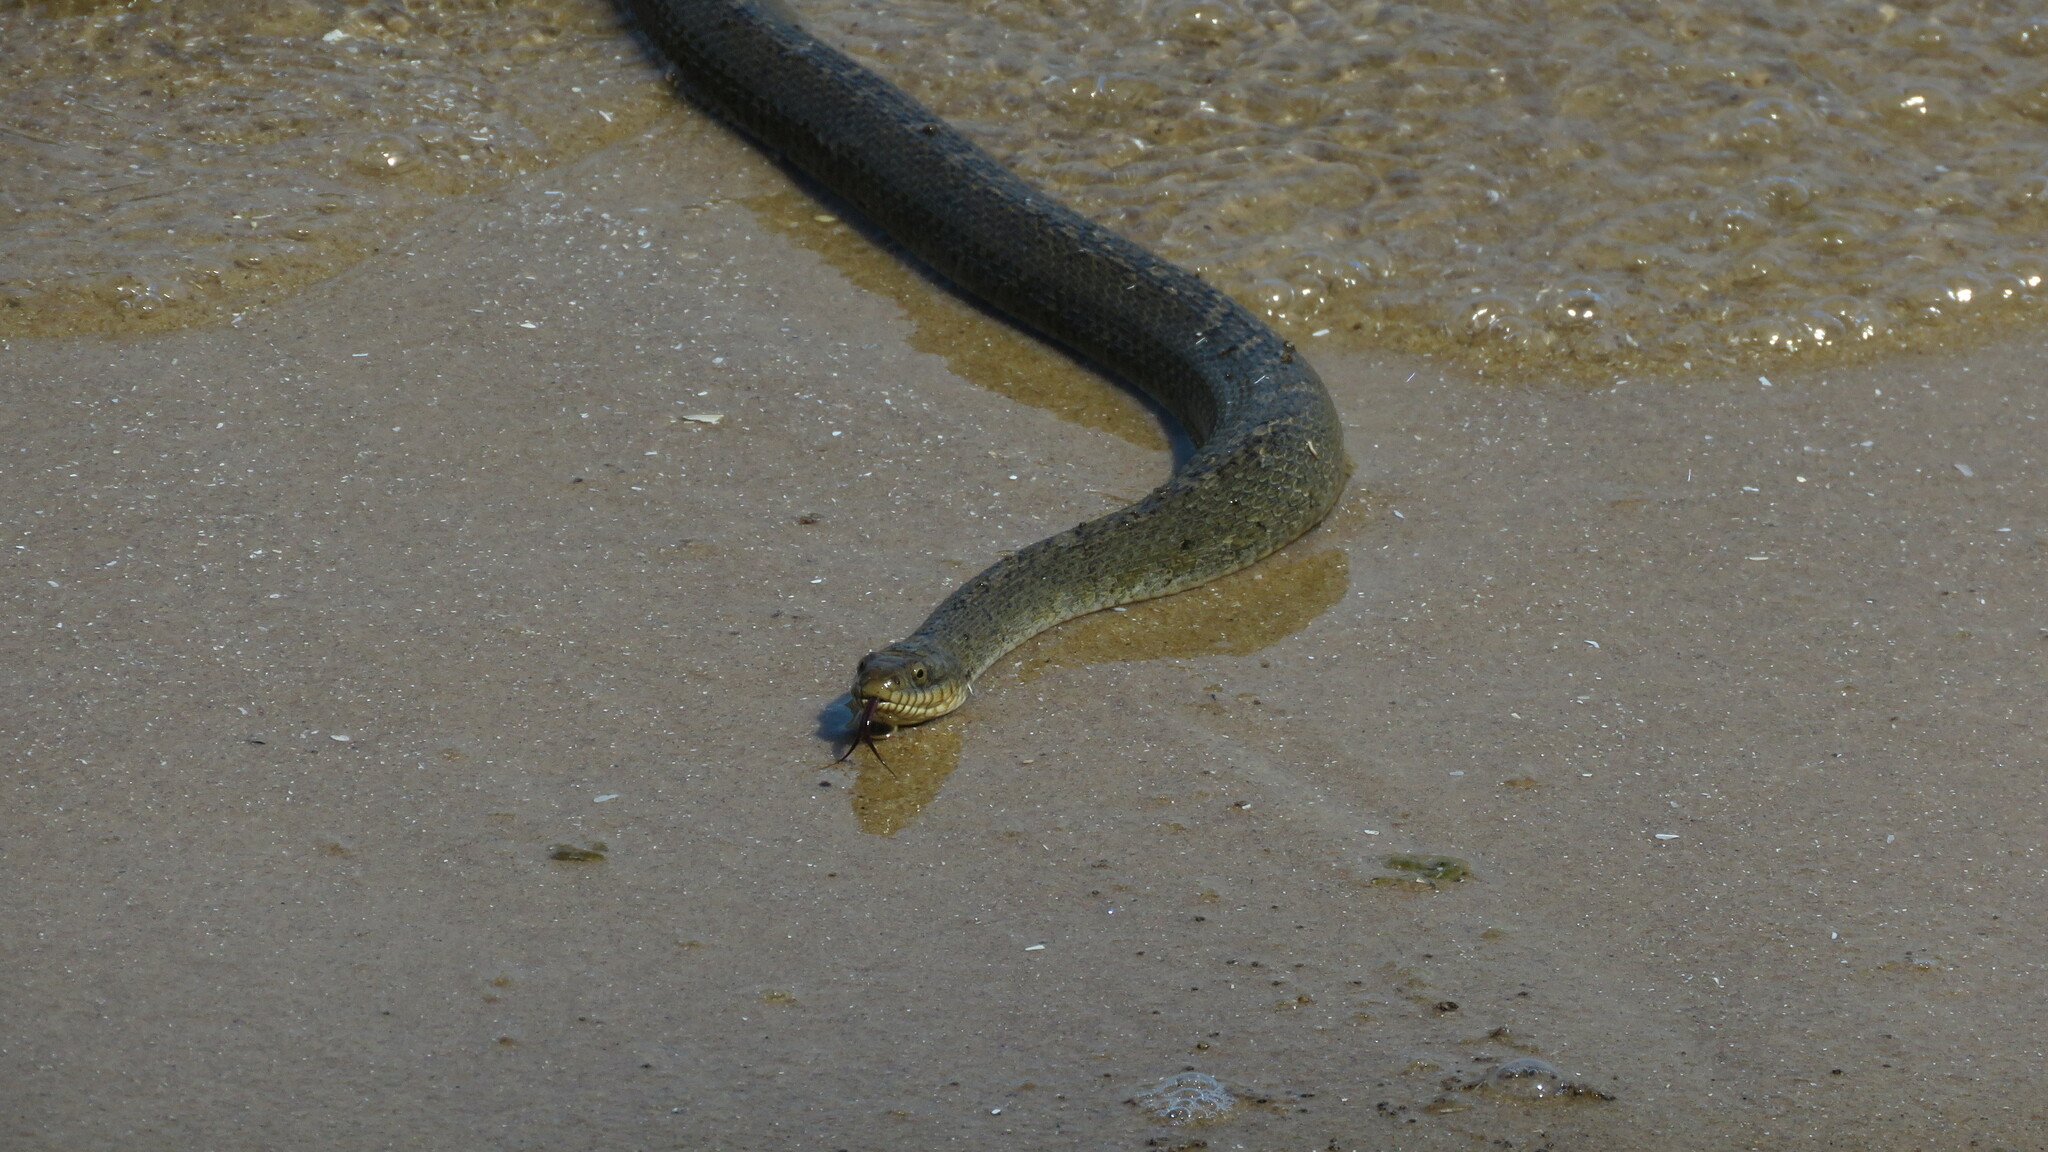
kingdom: Animalia
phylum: Chordata
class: Squamata
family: Colubridae
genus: Nerodia
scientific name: Nerodia sipedon
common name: Northern water snake
